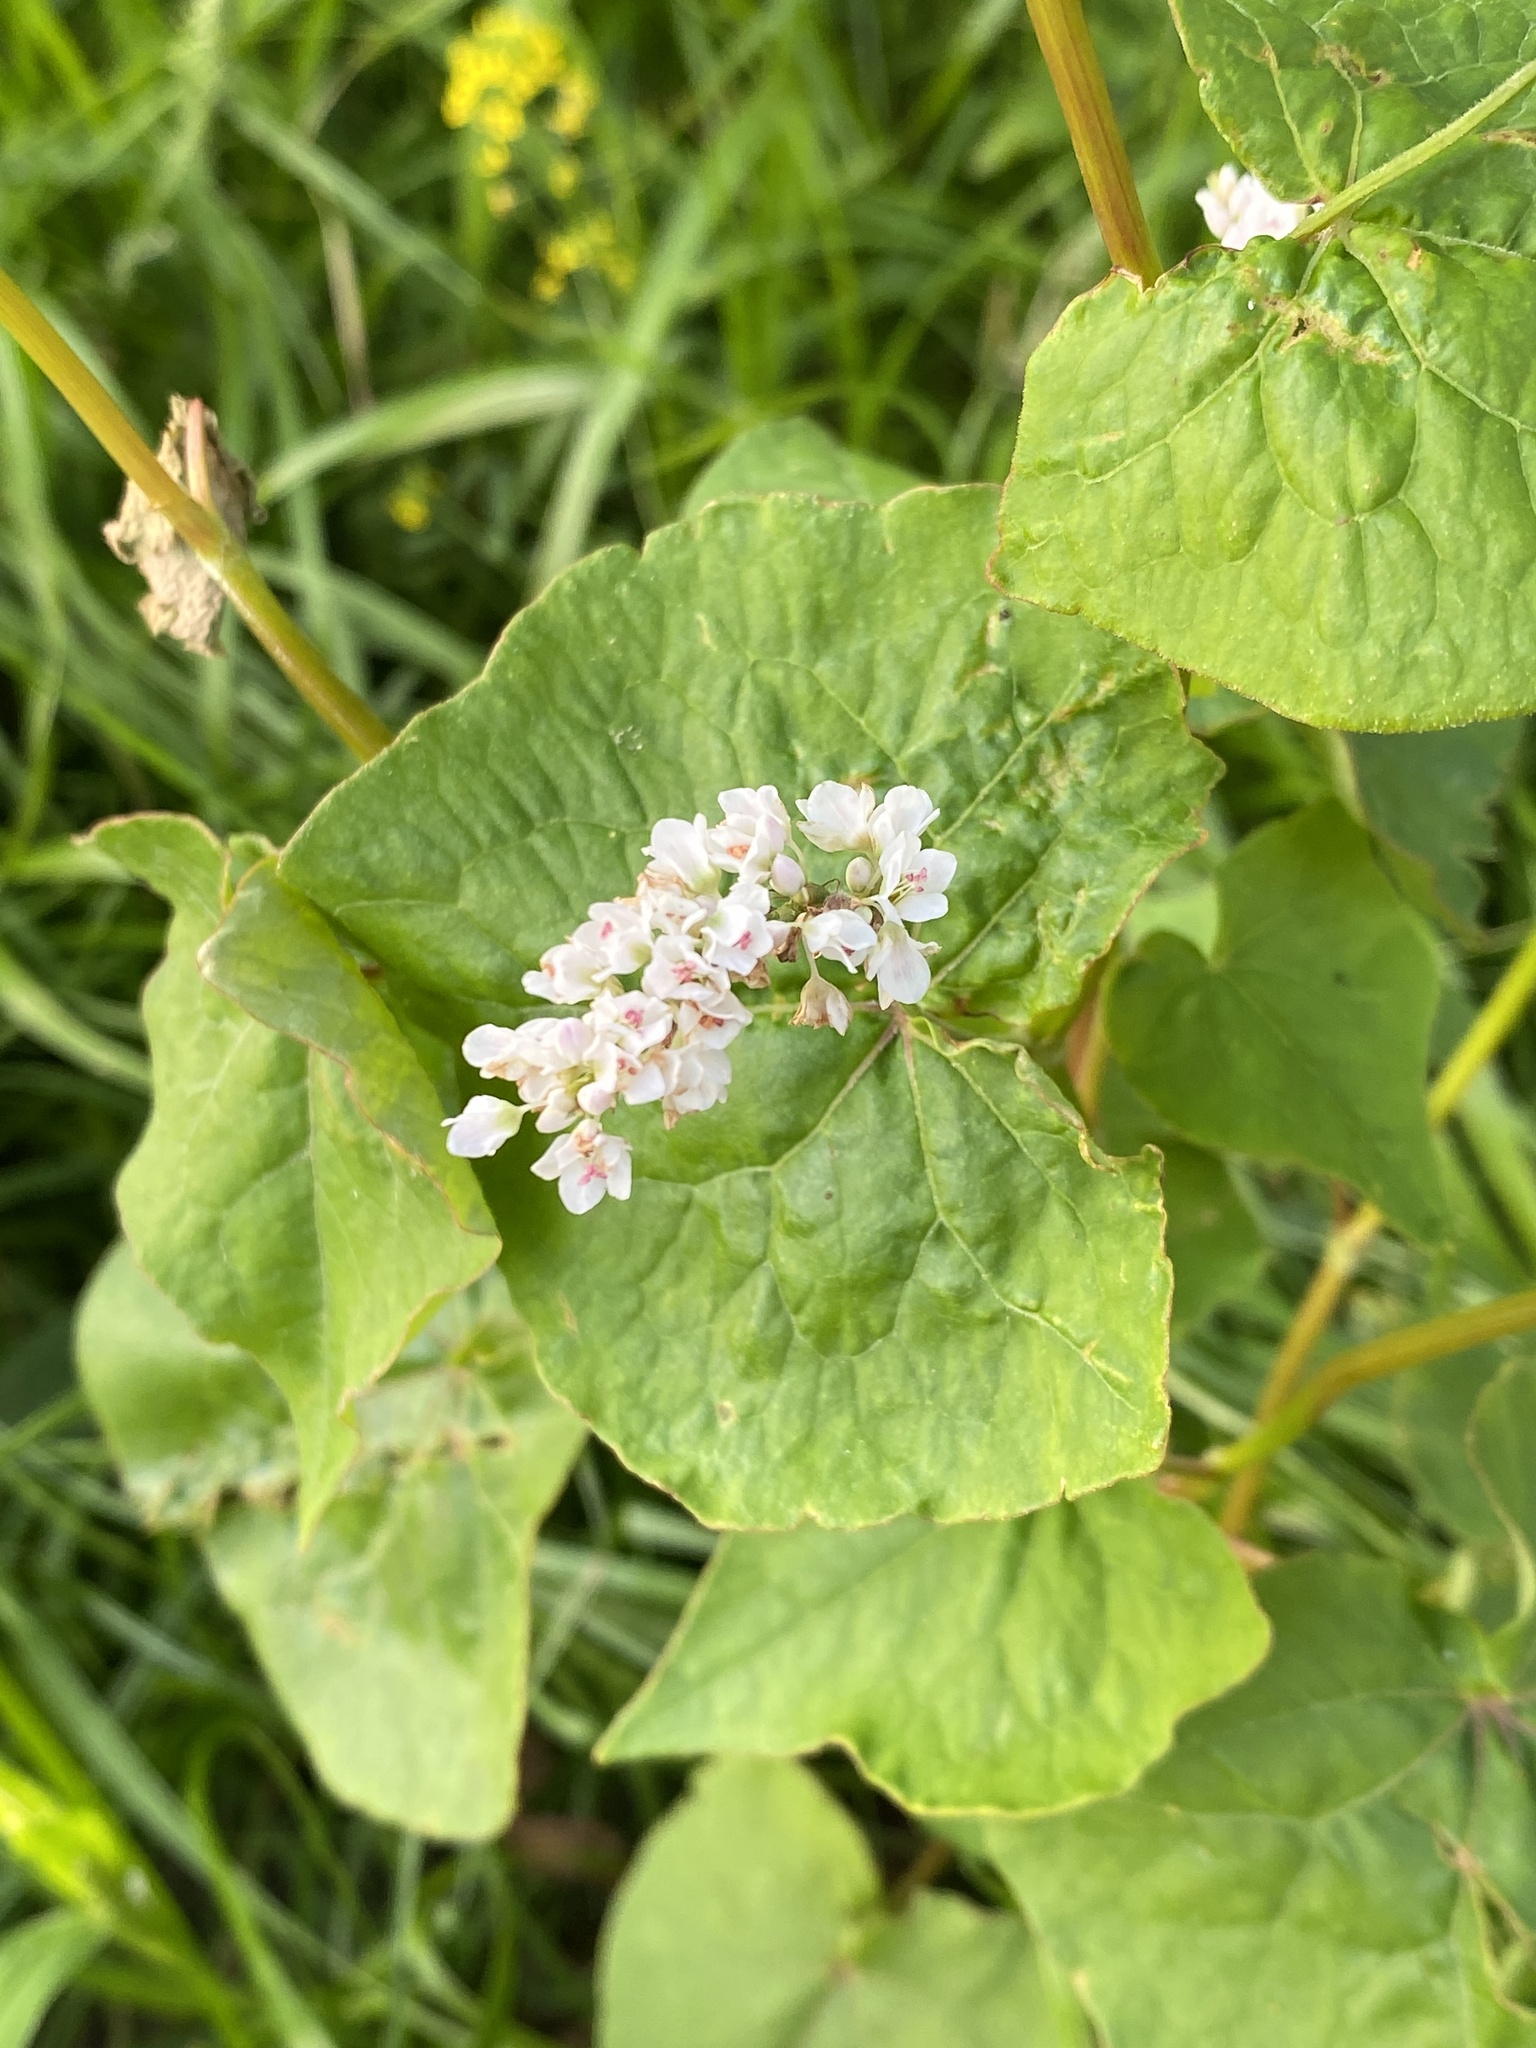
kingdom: Plantae
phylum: Tracheophyta
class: Magnoliopsida
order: Caryophyllales
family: Polygonaceae
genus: Fagopyrum
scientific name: Fagopyrum esculentum
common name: Buckwheat
